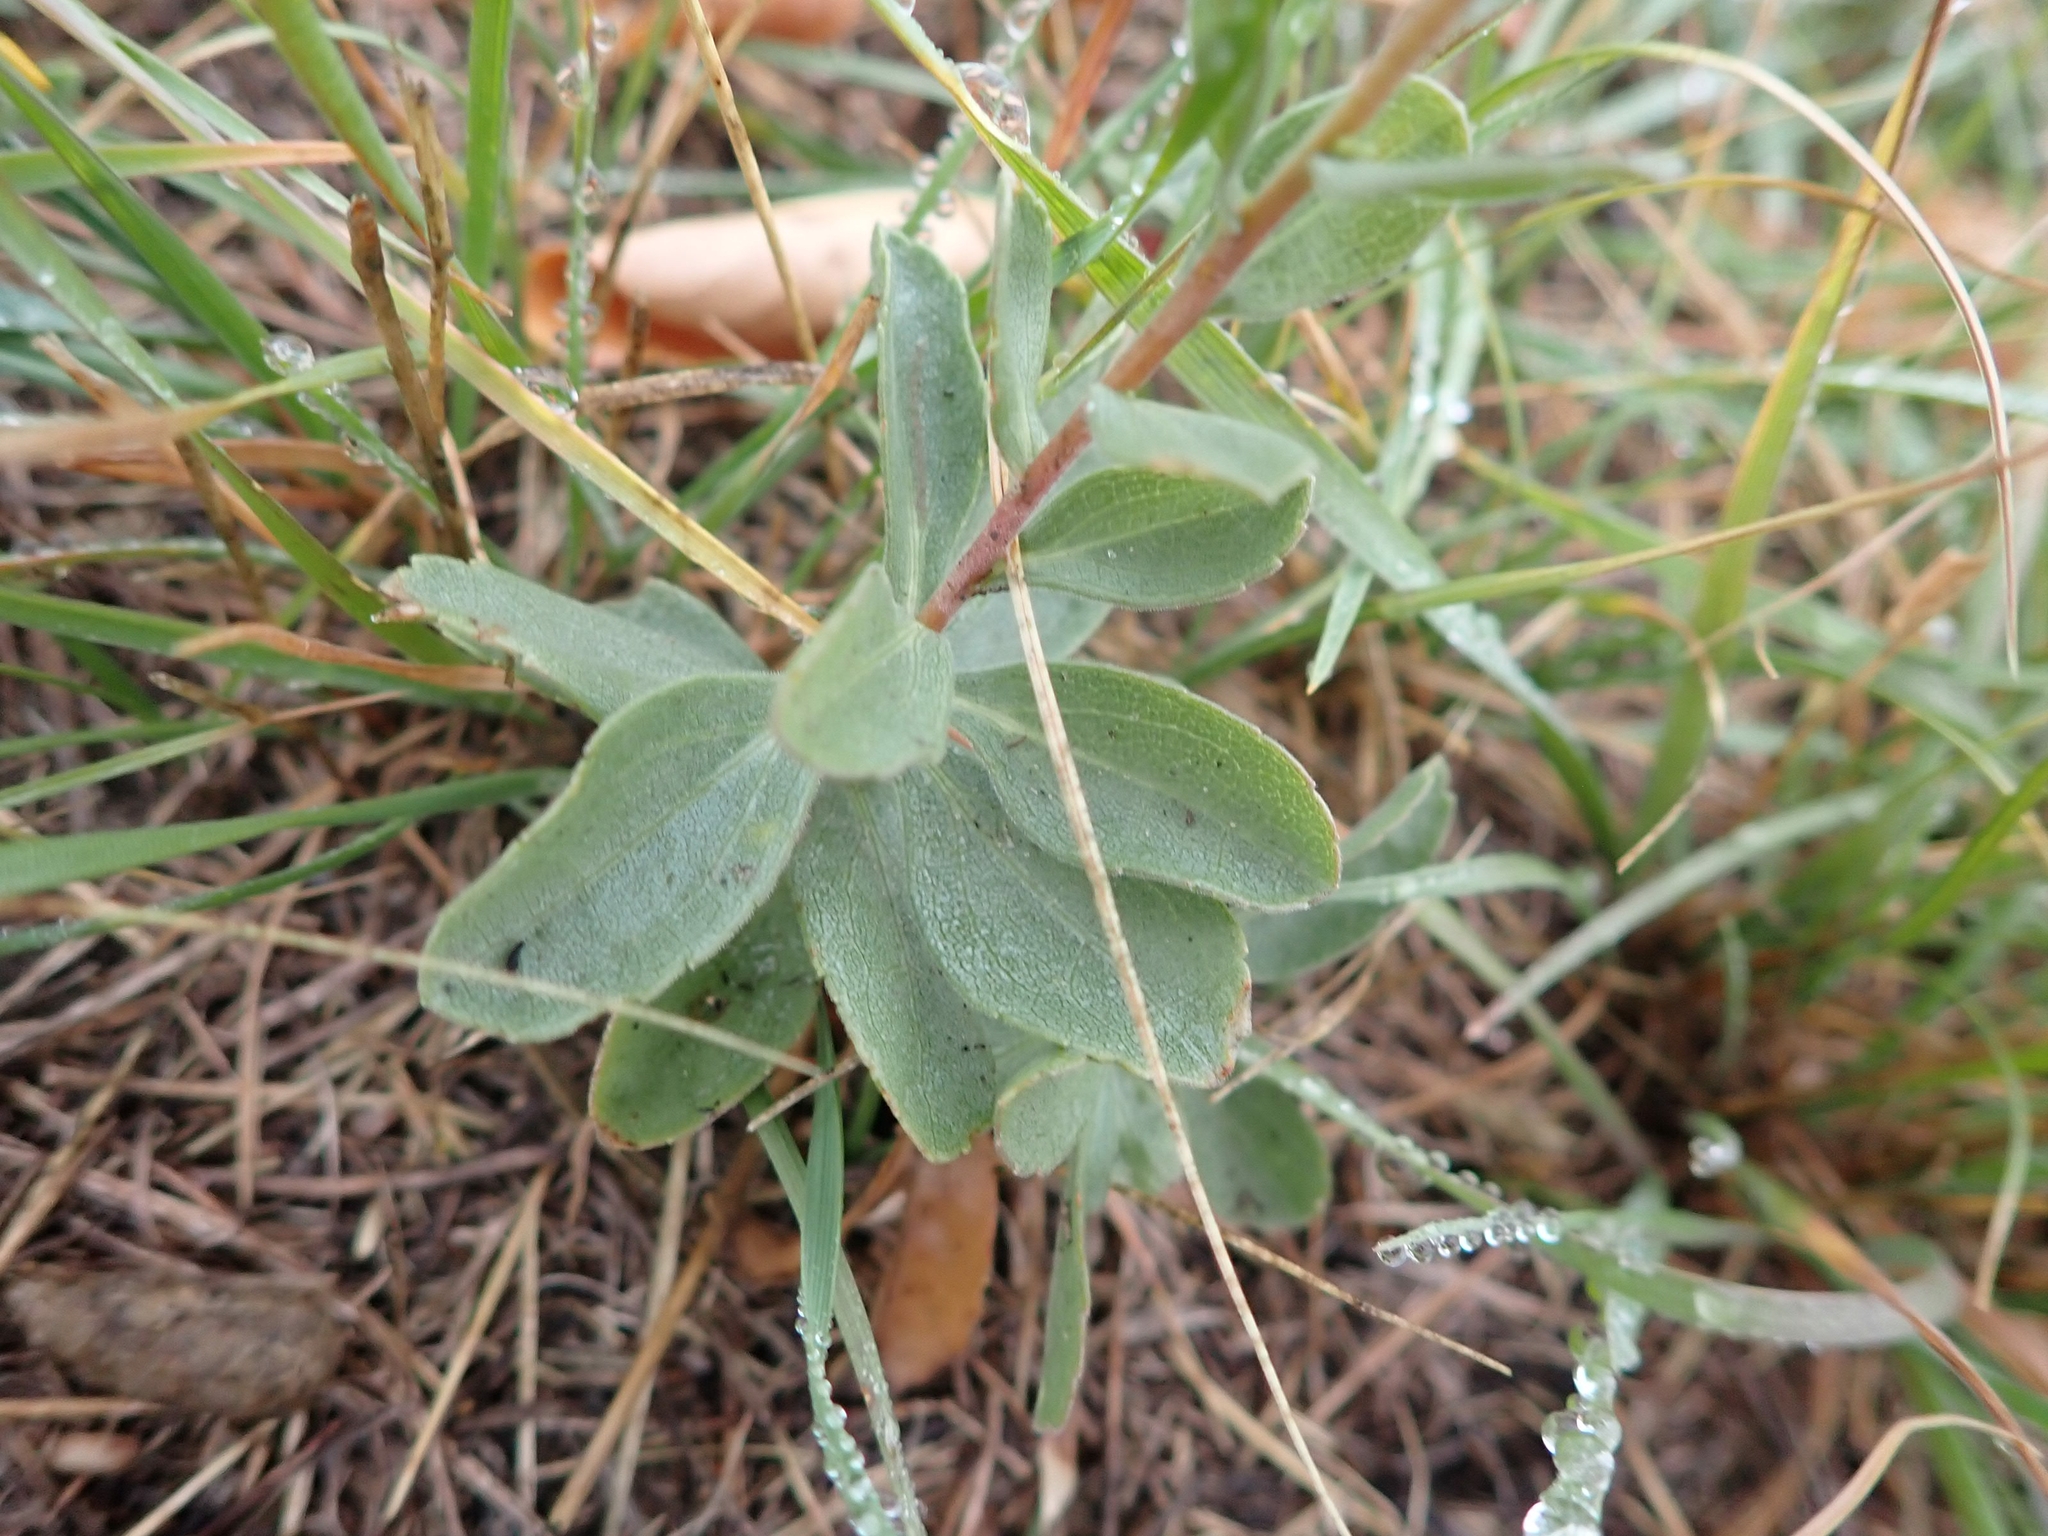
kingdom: Plantae
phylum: Tracheophyta
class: Magnoliopsida
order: Asterales
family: Asteraceae
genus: Solidago
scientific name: Solidago mollis
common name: Ashly goldenrod
